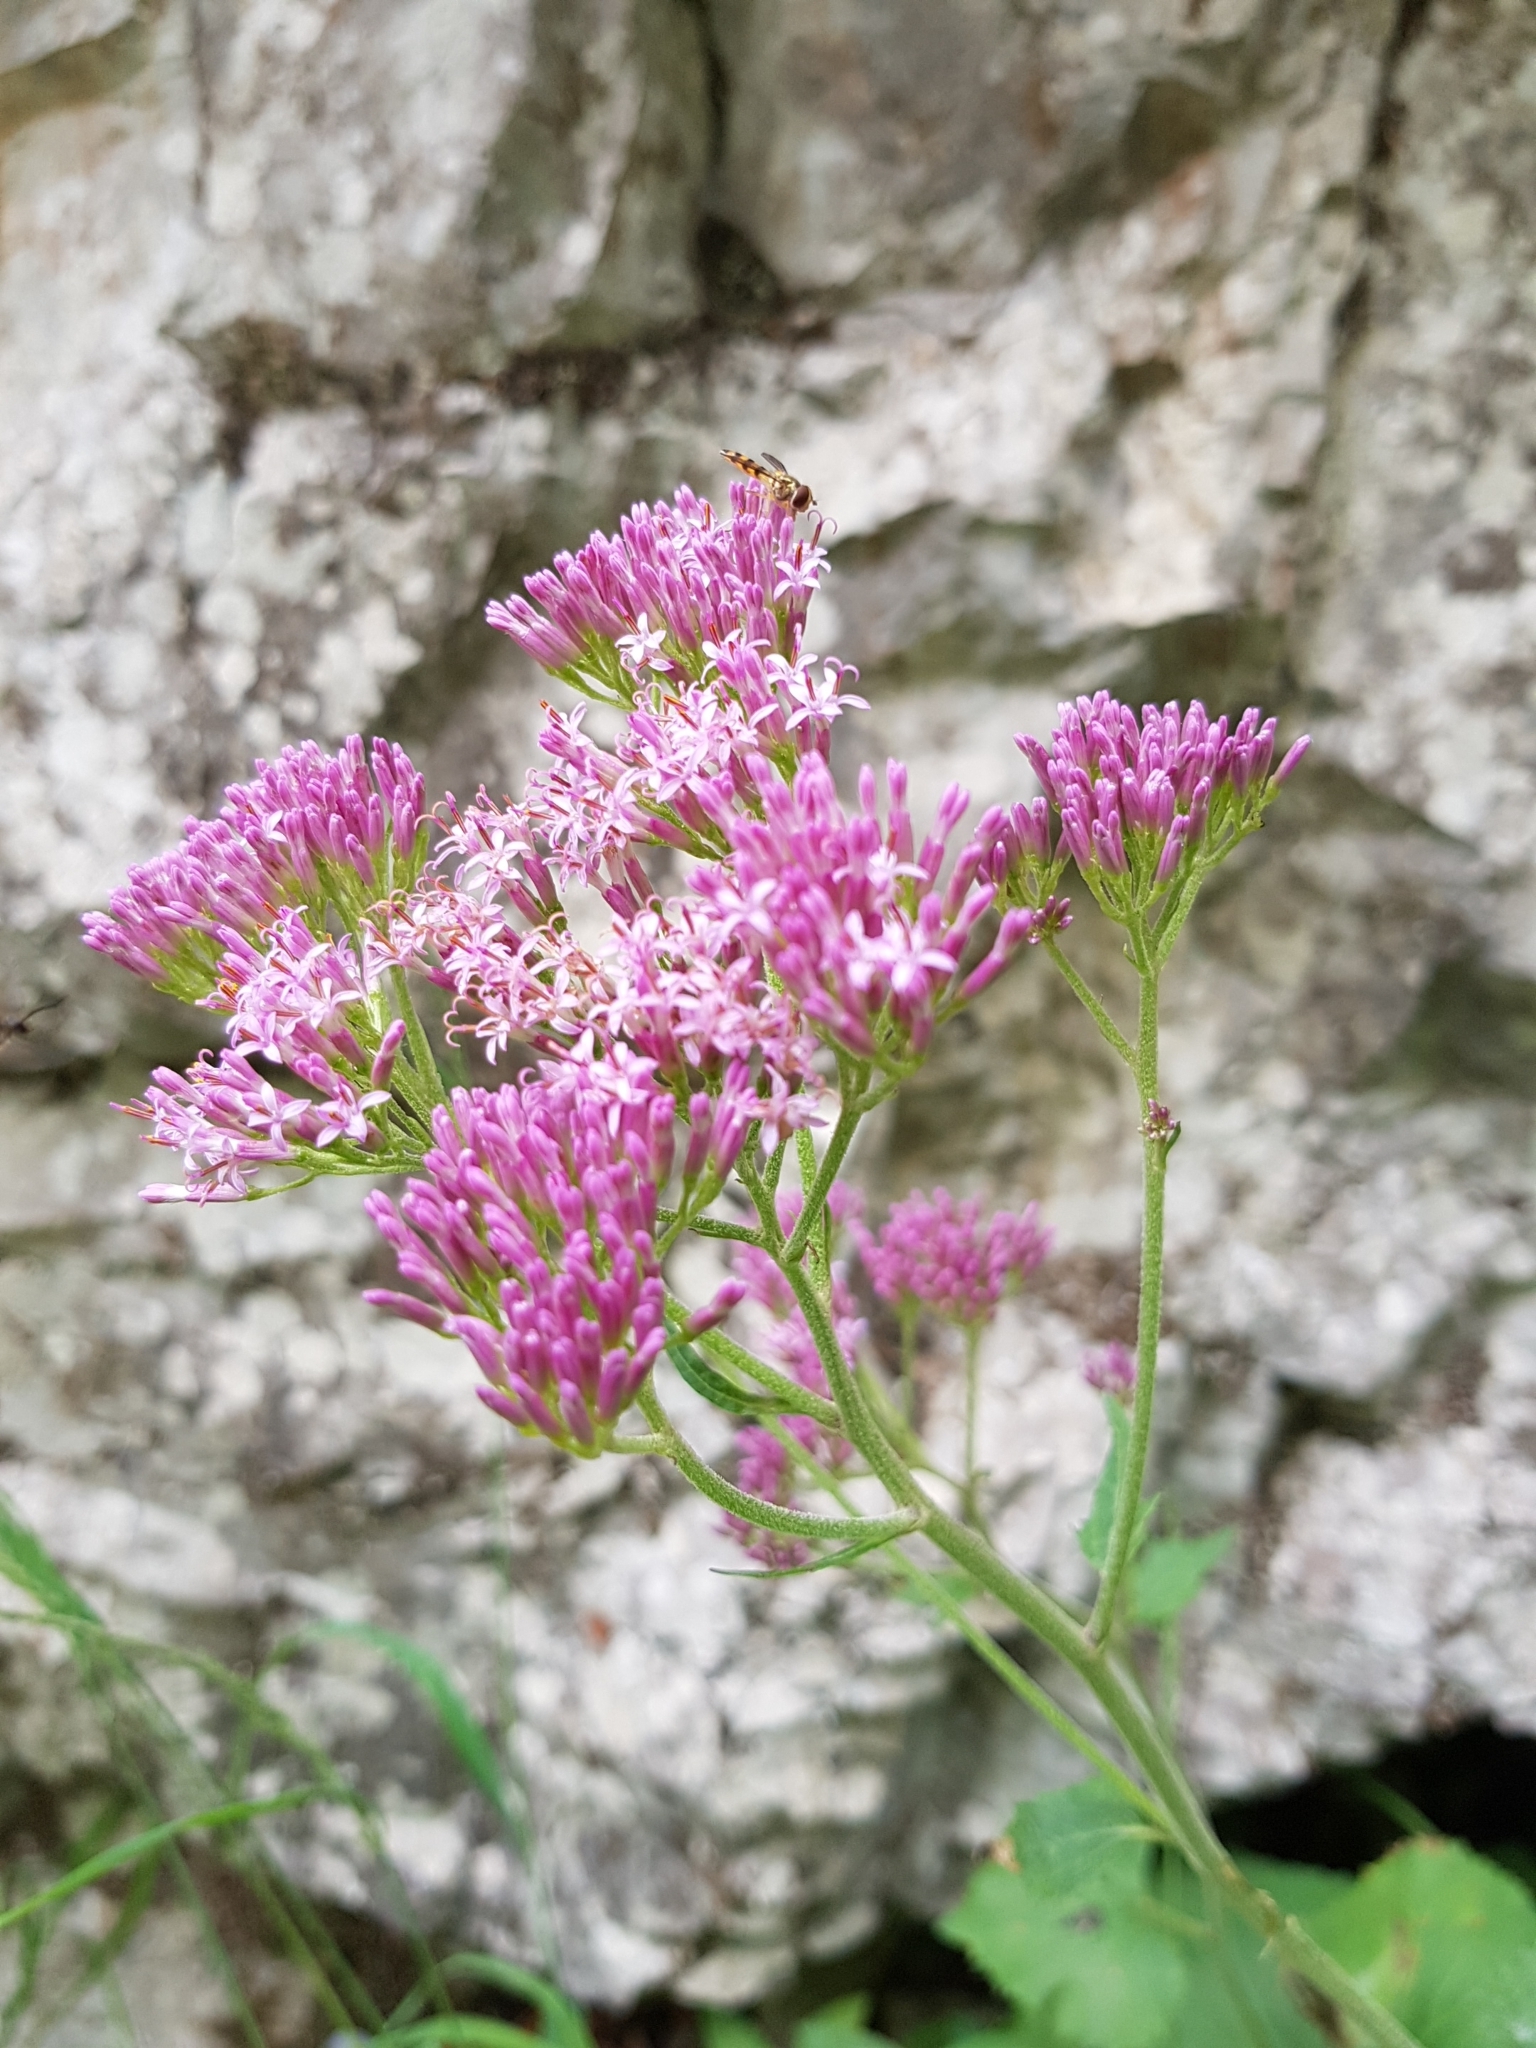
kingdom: Plantae
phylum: Tracheophyta
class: Magnoliopsida
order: Asterales
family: Asteraceae
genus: Adenostyles
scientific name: Adenostyles alpina
